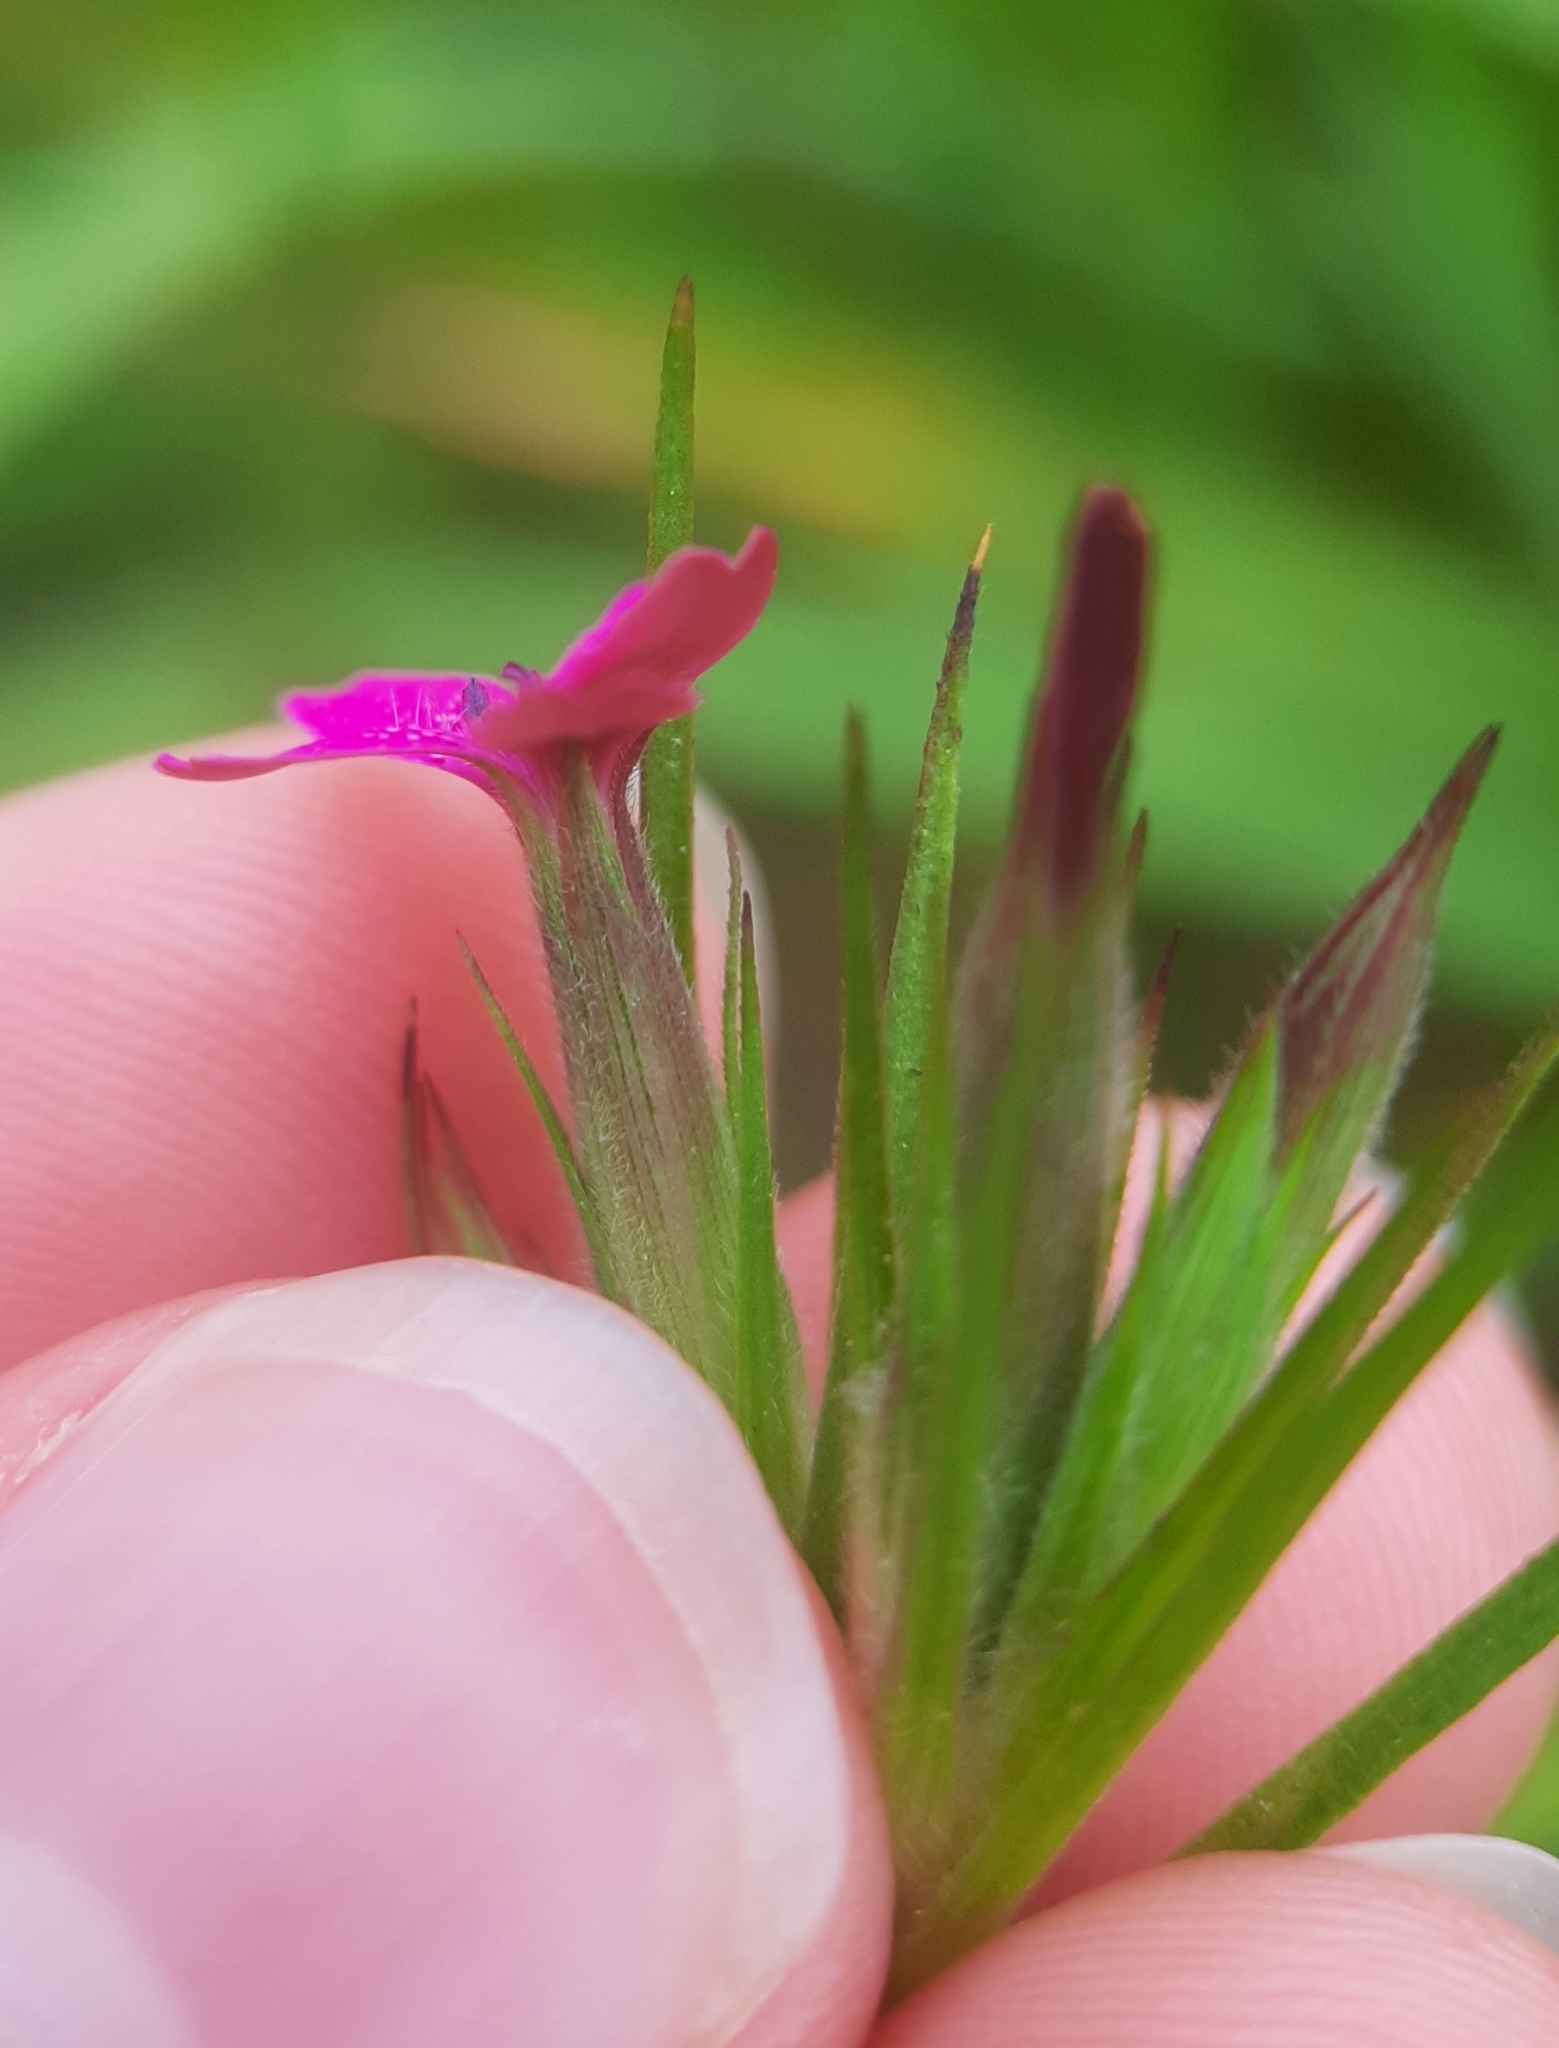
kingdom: Plantae
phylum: Tracheophyta
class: Magnoliopsida
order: Caryophyllales
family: Caryophyllaceae
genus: Dianthus
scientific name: Dianthus armeria
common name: Deptford pink
